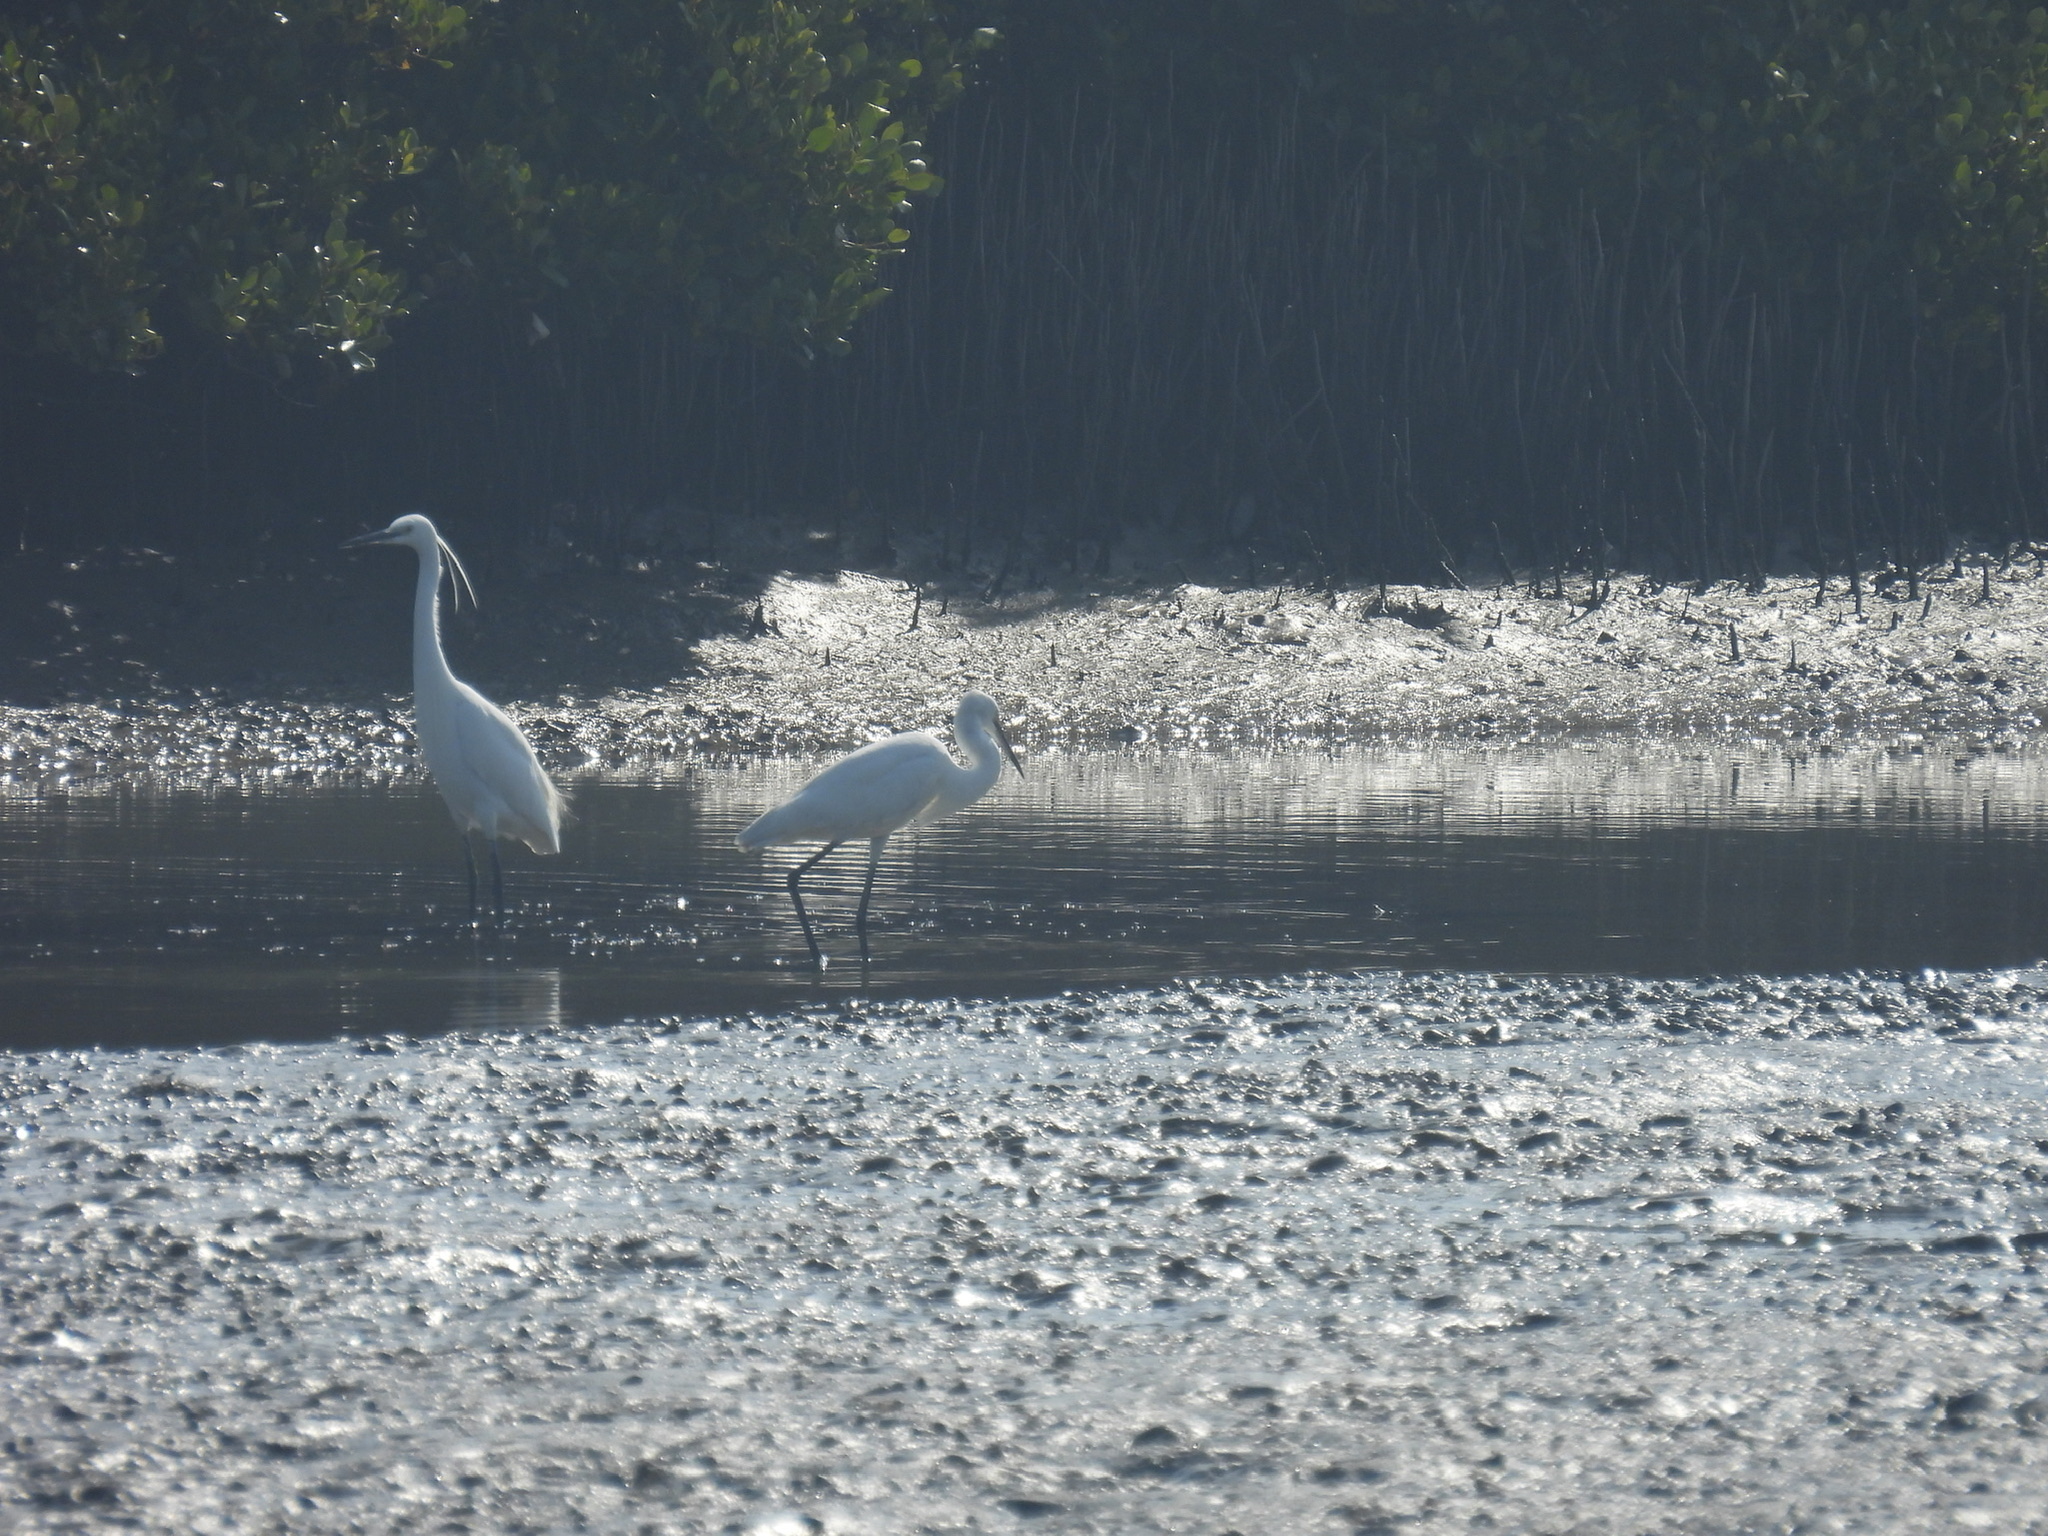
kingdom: Animalia
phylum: Chordata
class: Aves
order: Pelecaniformes
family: Ardeidae
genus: Egretta
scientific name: Egretta garzetta
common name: Little egret
